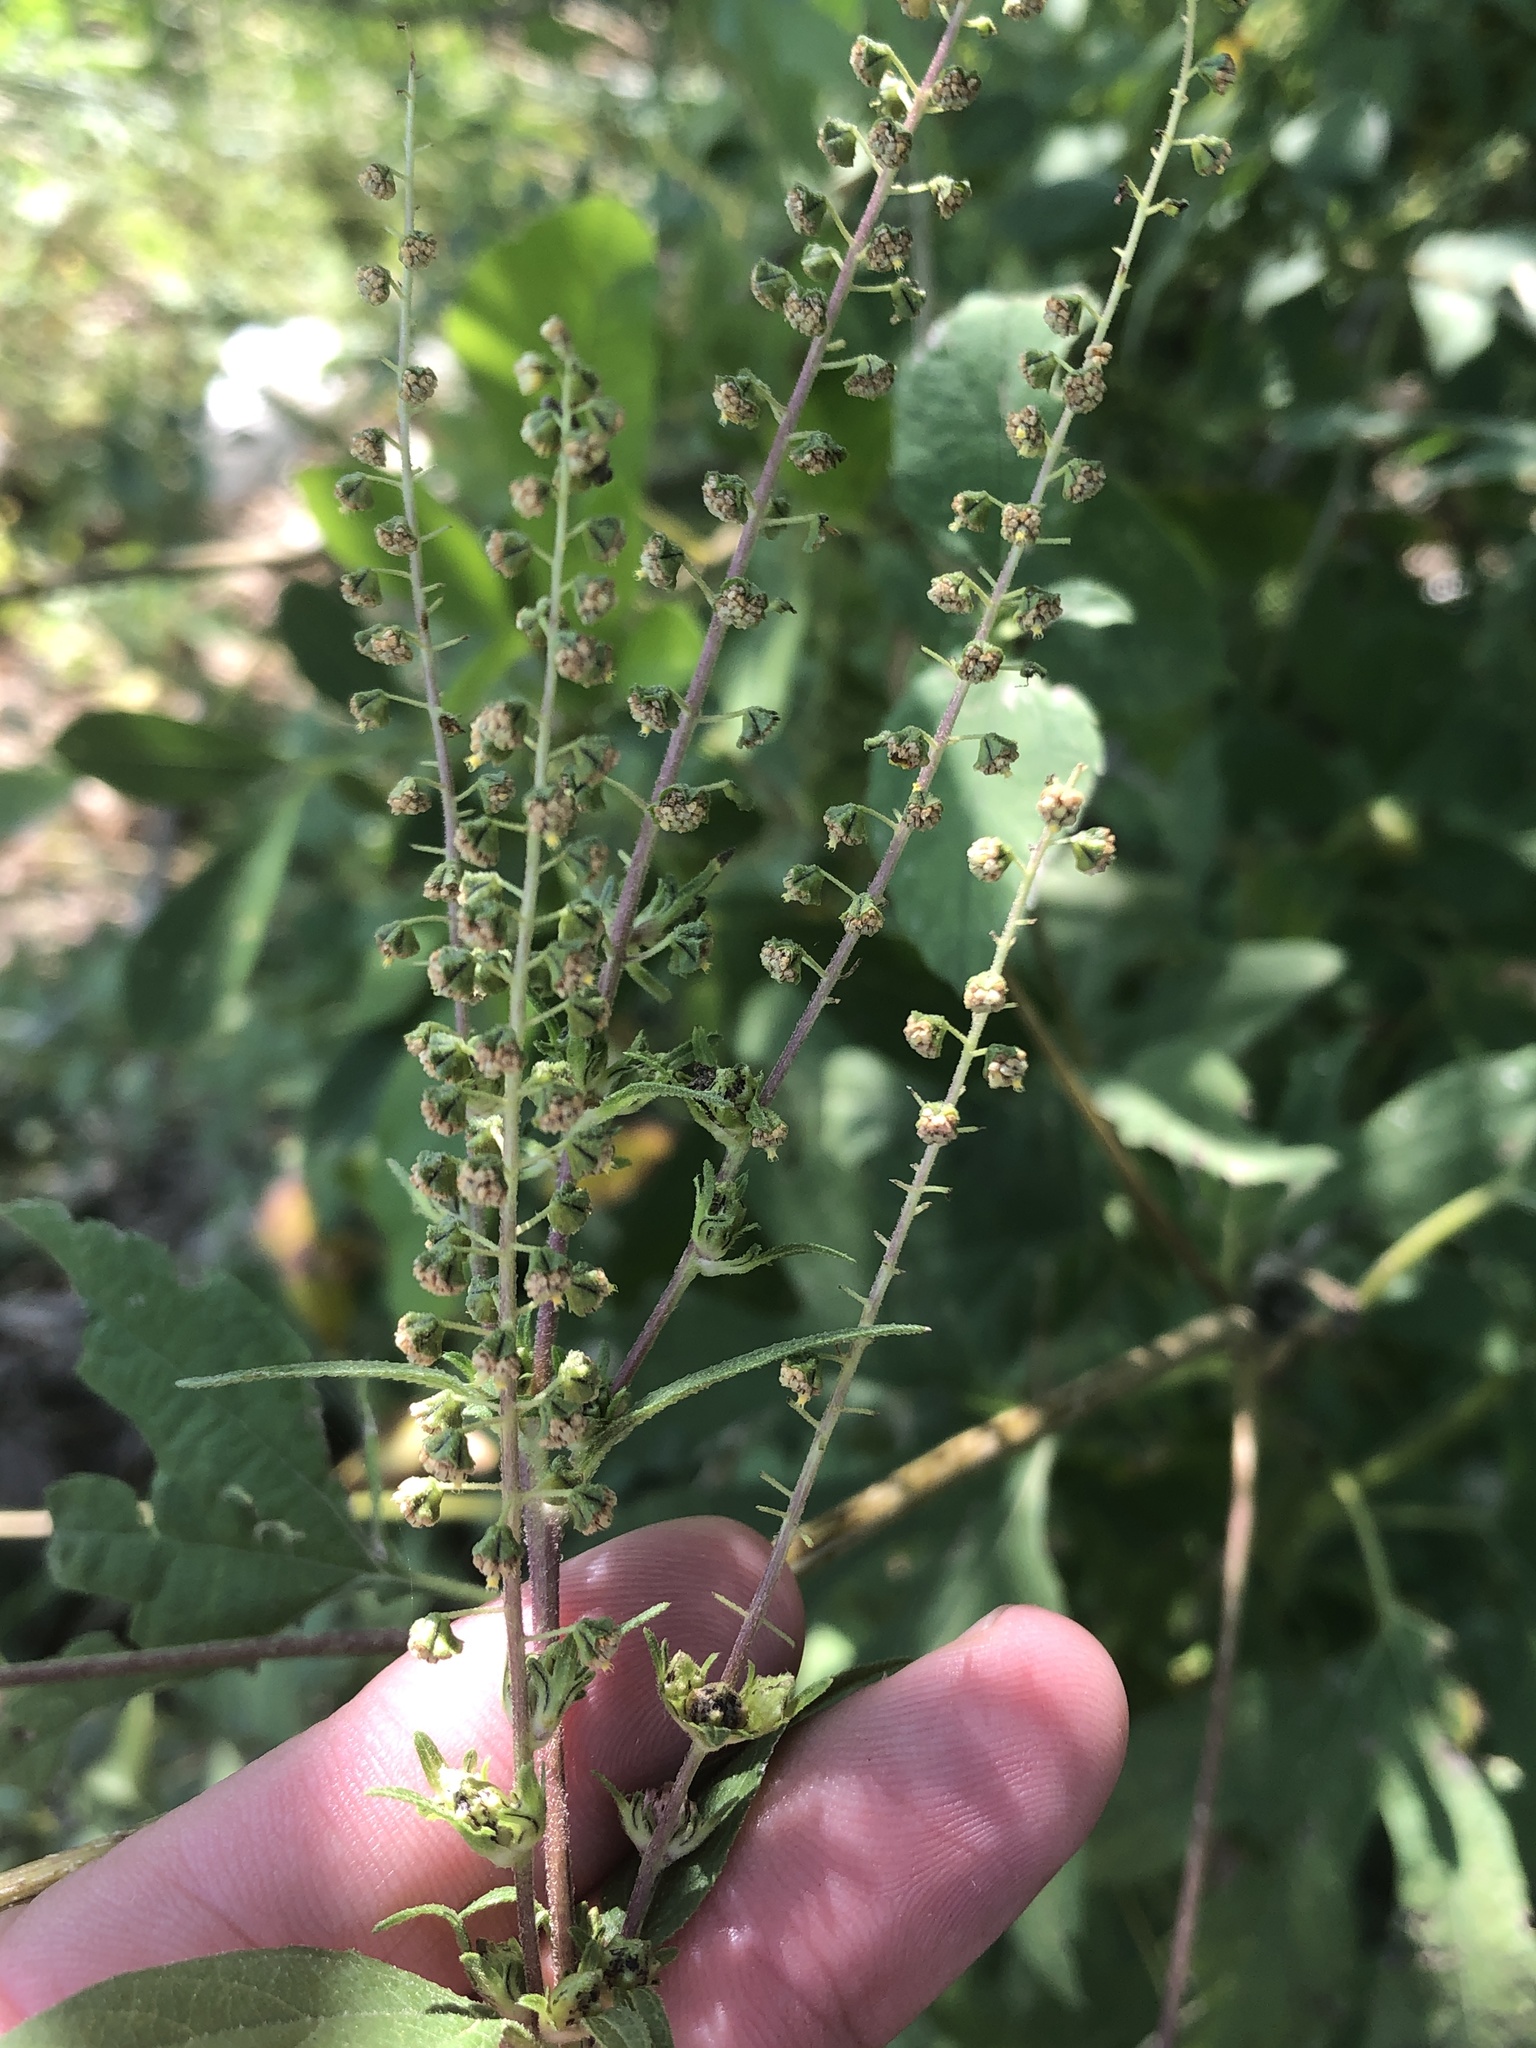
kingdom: Plantae
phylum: Tracheophyta
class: Magnoliopsida
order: Asterales
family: Asteraceae
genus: Ambrosia
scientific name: Ambrosia trifida
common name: Giant ragweed
